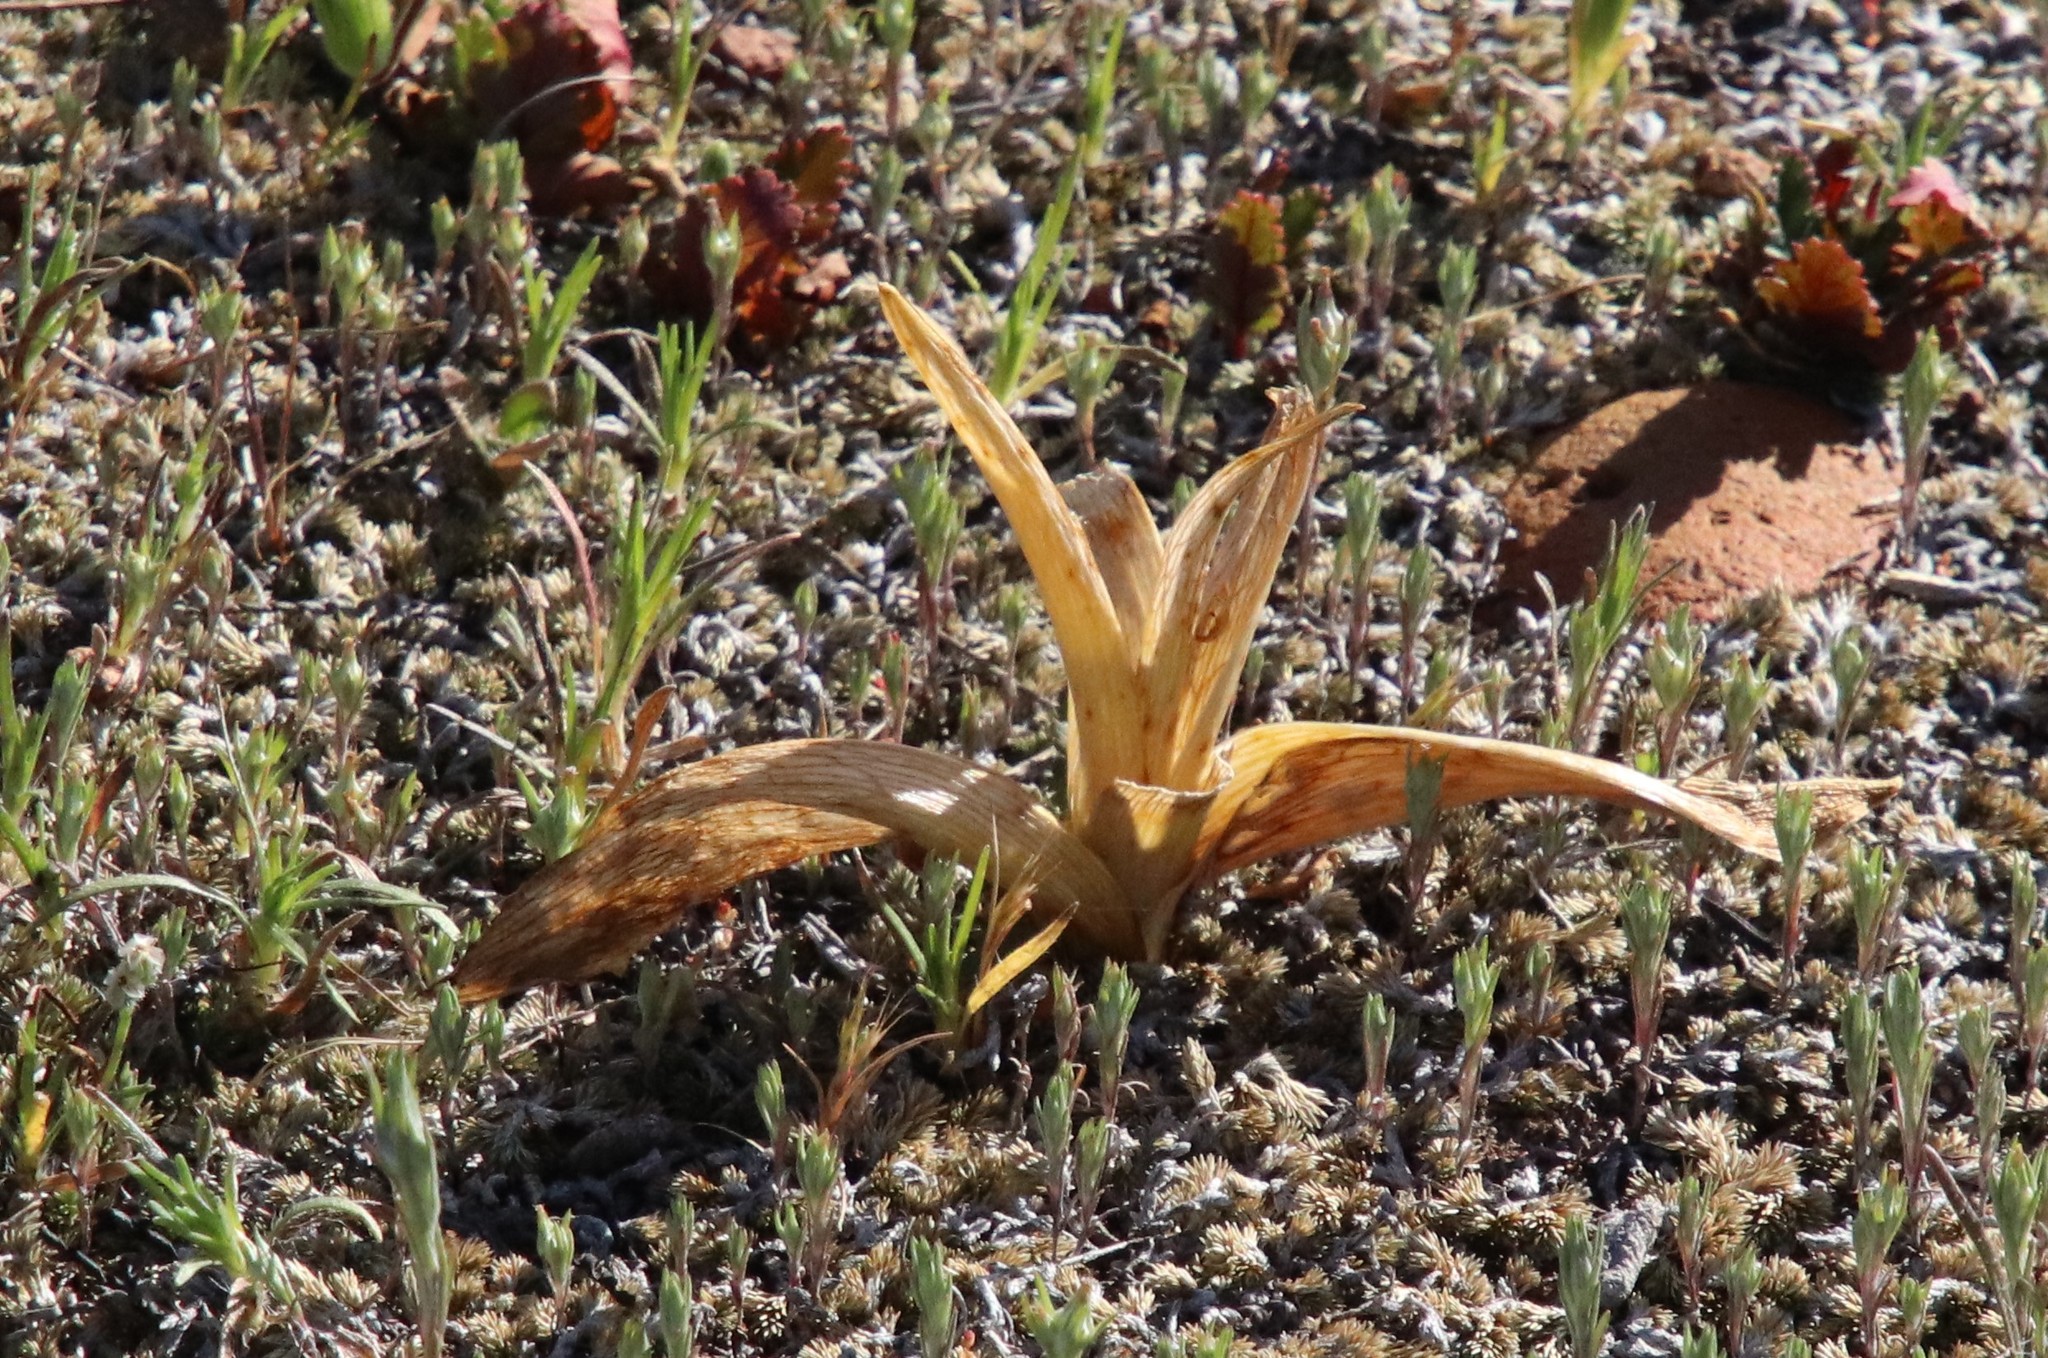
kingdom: Plantae
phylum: Tracheophyta
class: Liliopsida
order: Liliales
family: Liliaceae
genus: Fritillaria
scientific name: Fritillaria biflora
